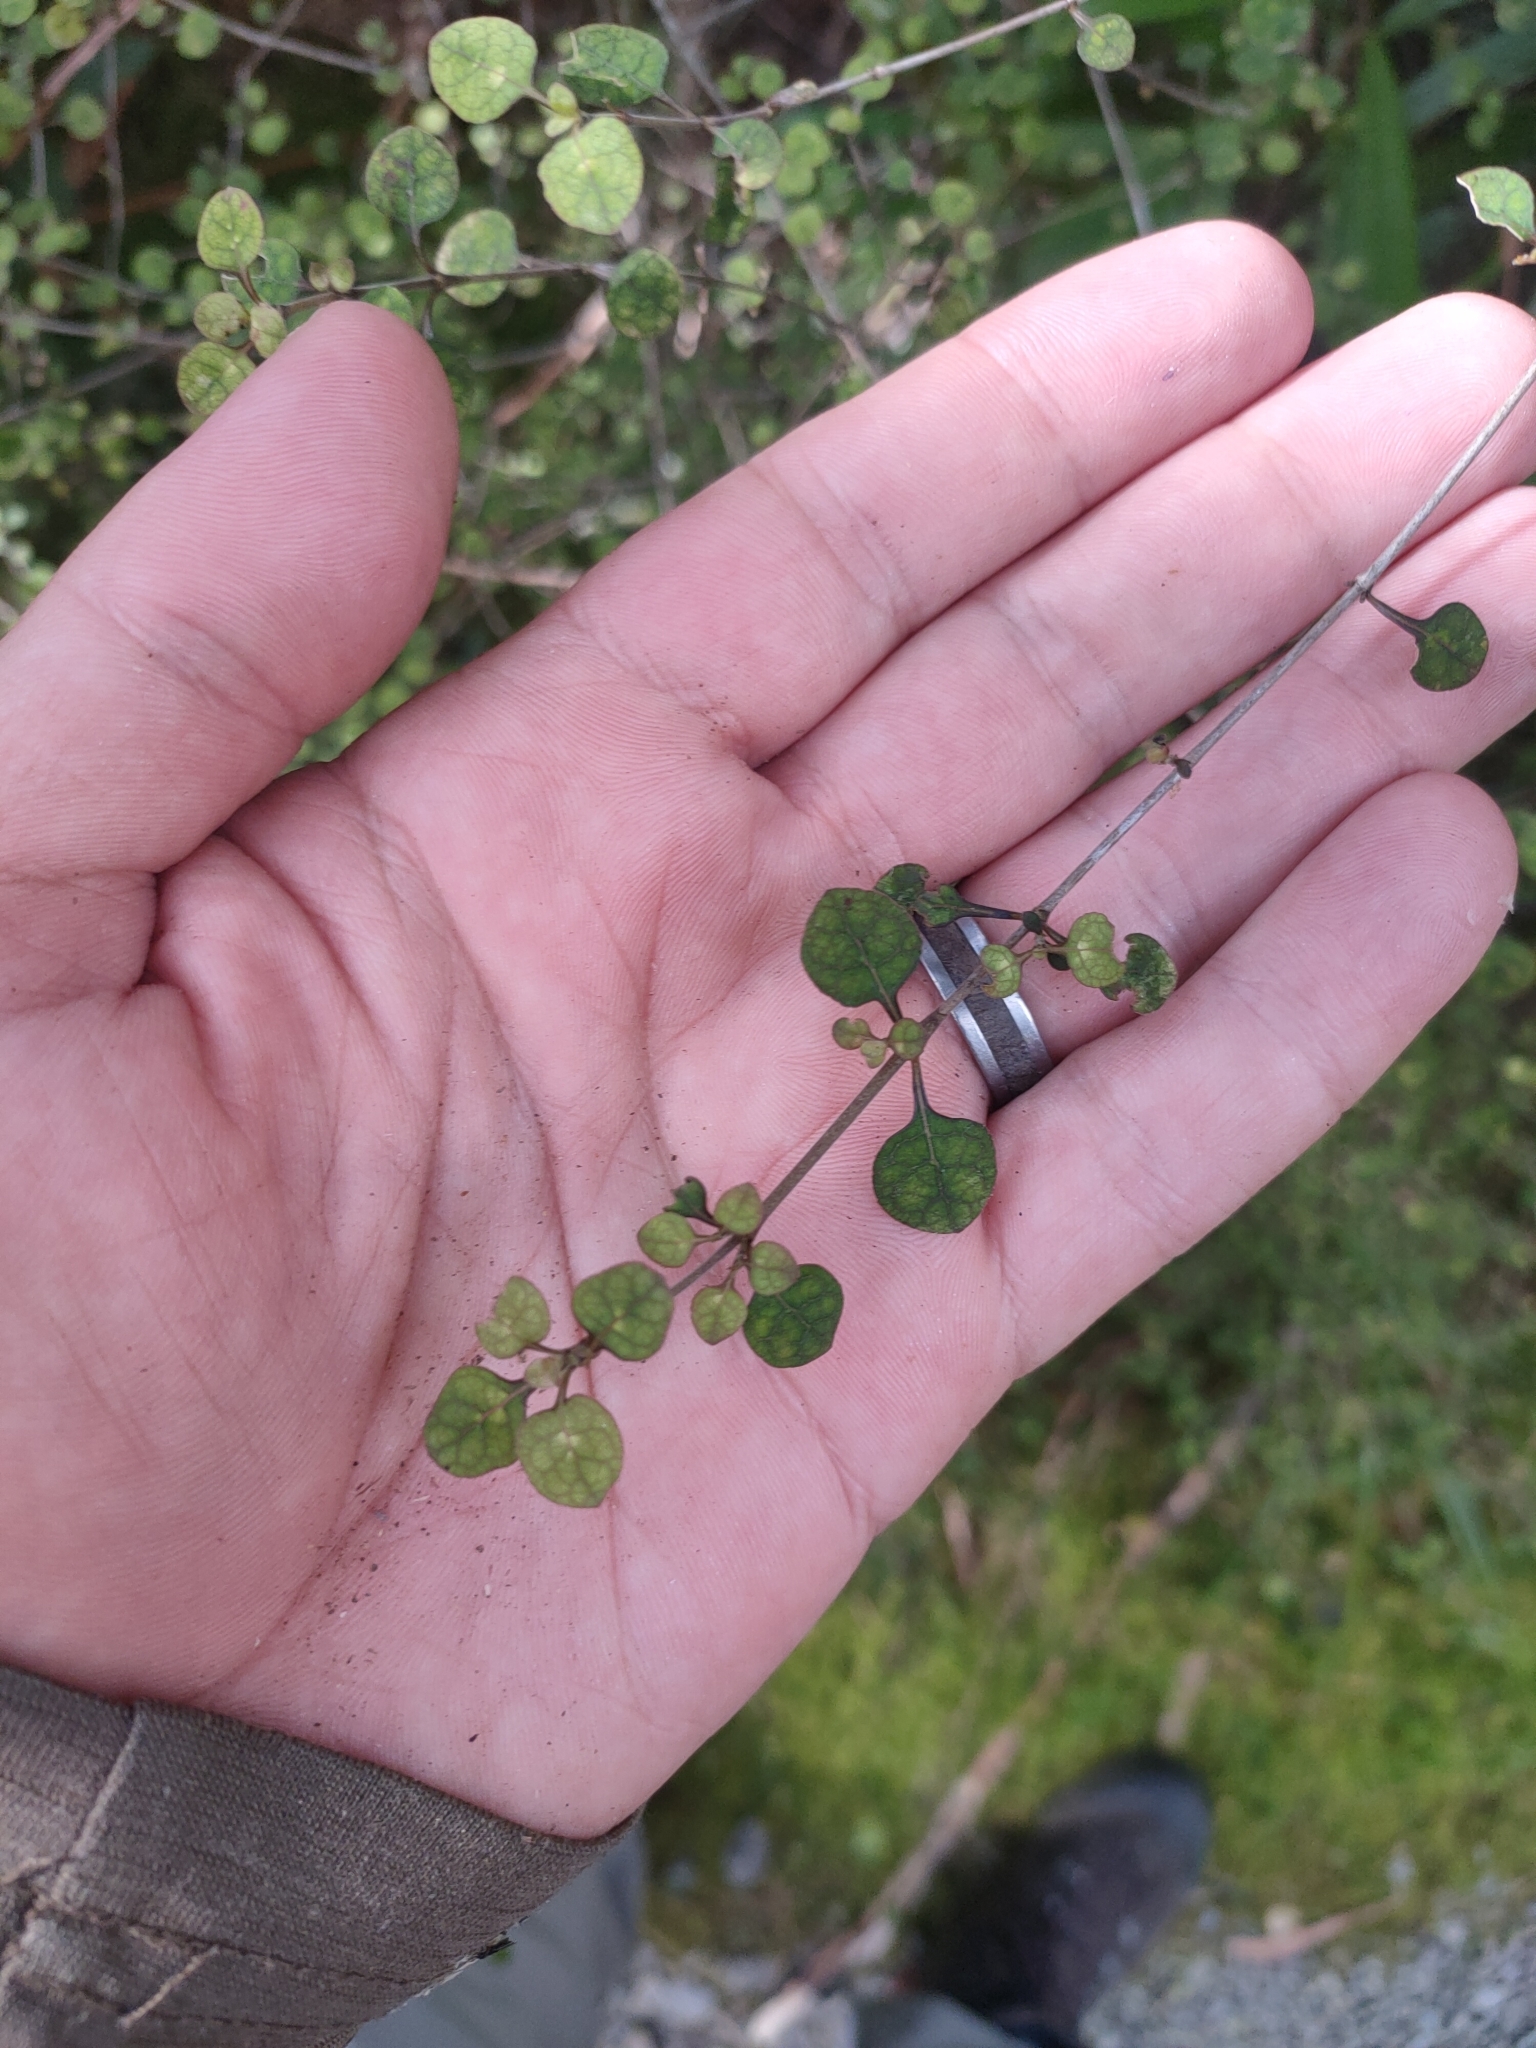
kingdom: Plantae
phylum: Tracheophyta
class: Magnoliopsida
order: Gentianales
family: Rubiaceae
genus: Coprosma
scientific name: Coprosma tenuicaulis
